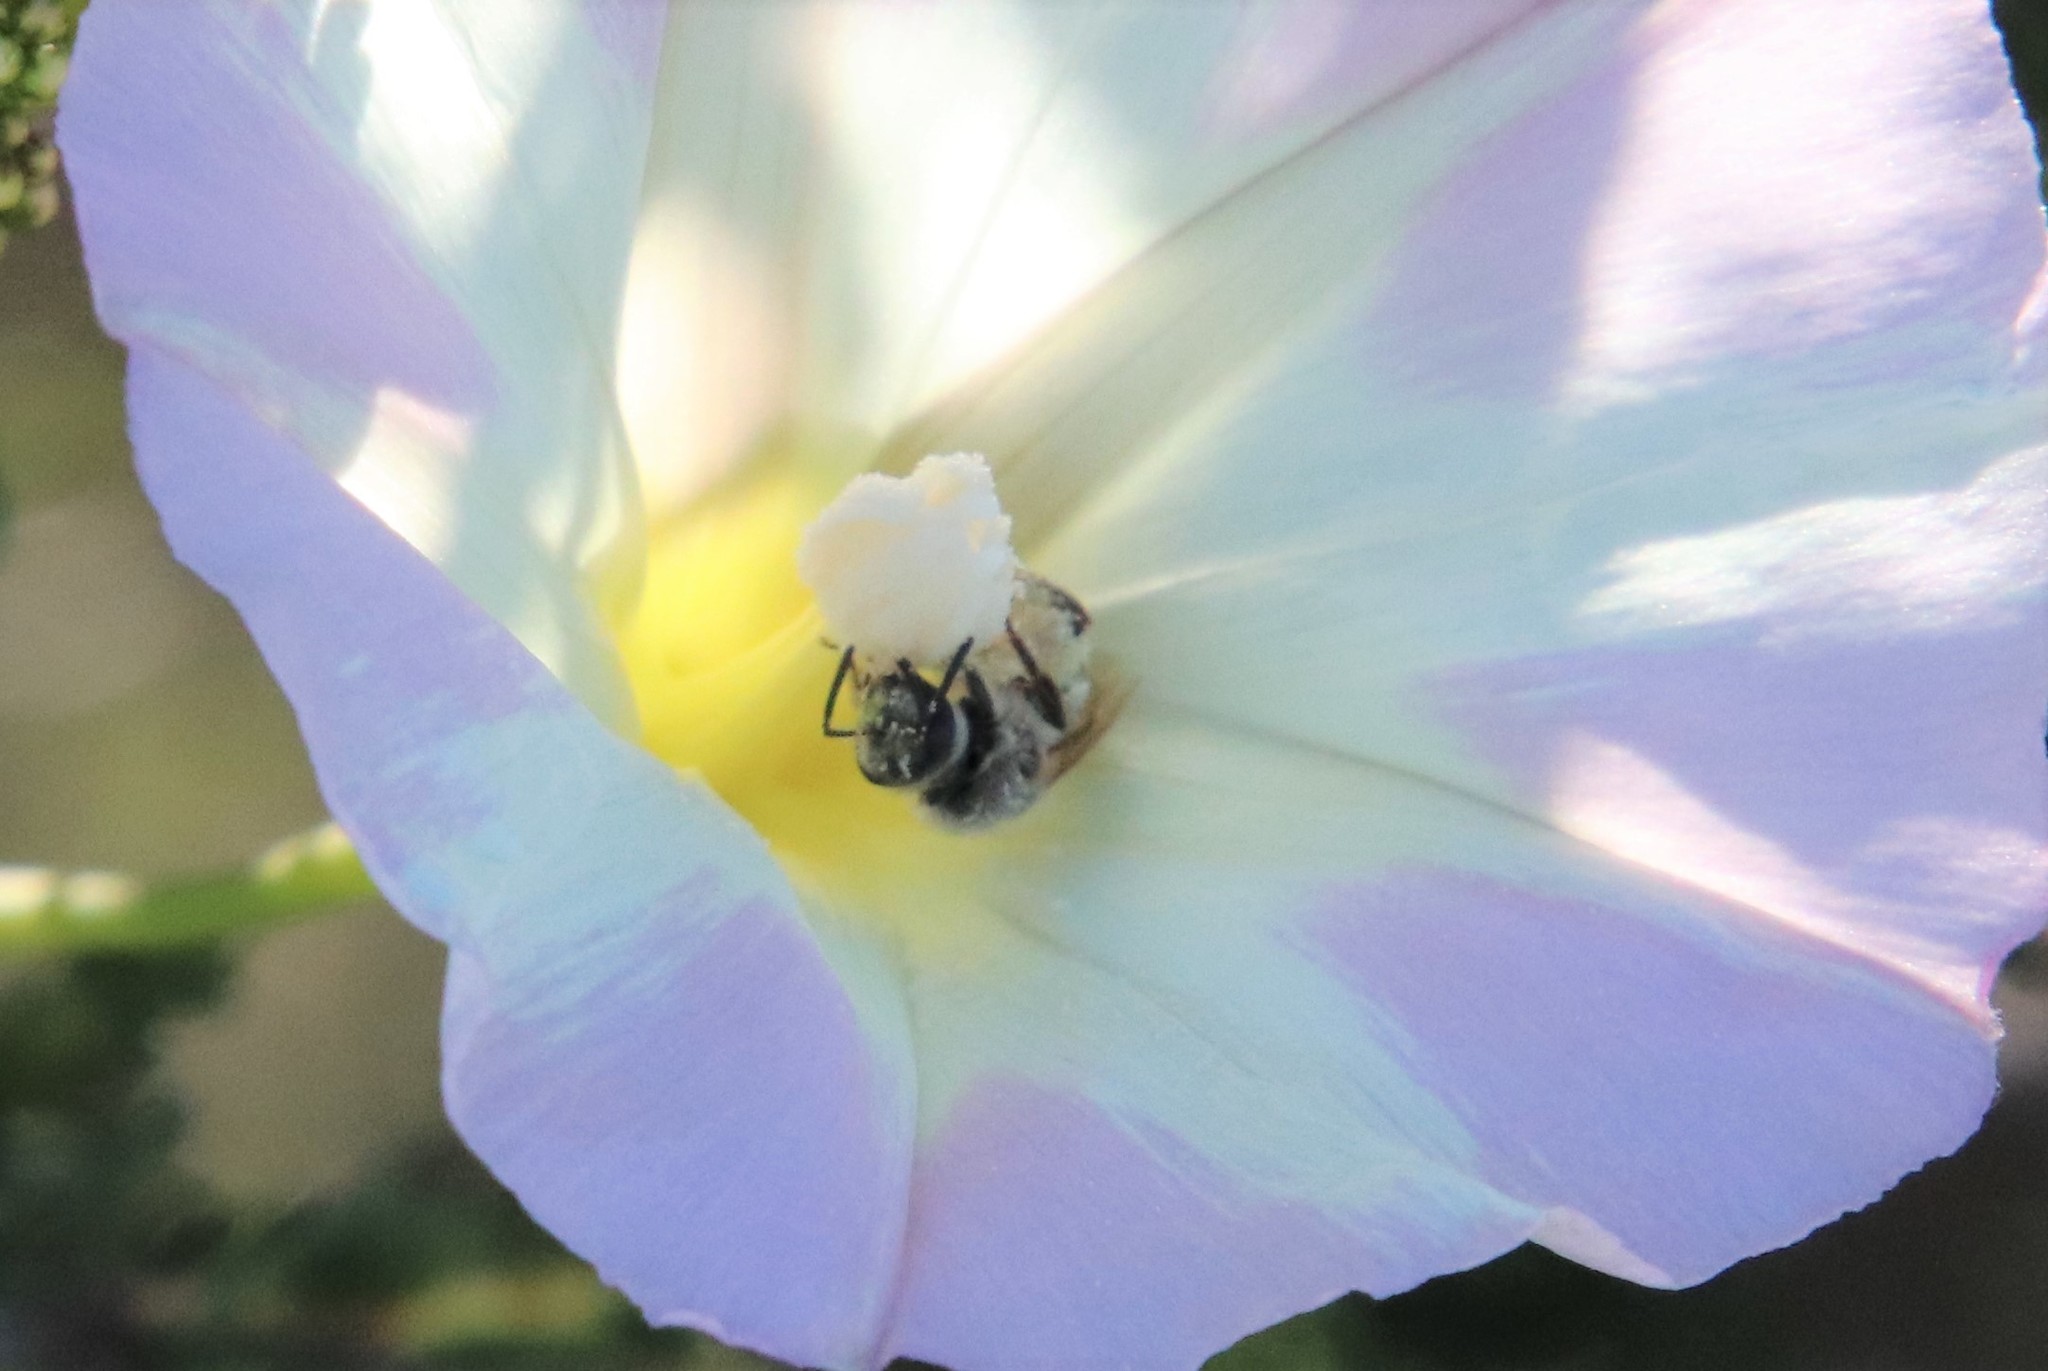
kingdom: Animalia
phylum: Arthropoda
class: Insecta
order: Hymenoptera
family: Halictidae
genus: Lasioglossum
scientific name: Lasioglossum sisymbrii
